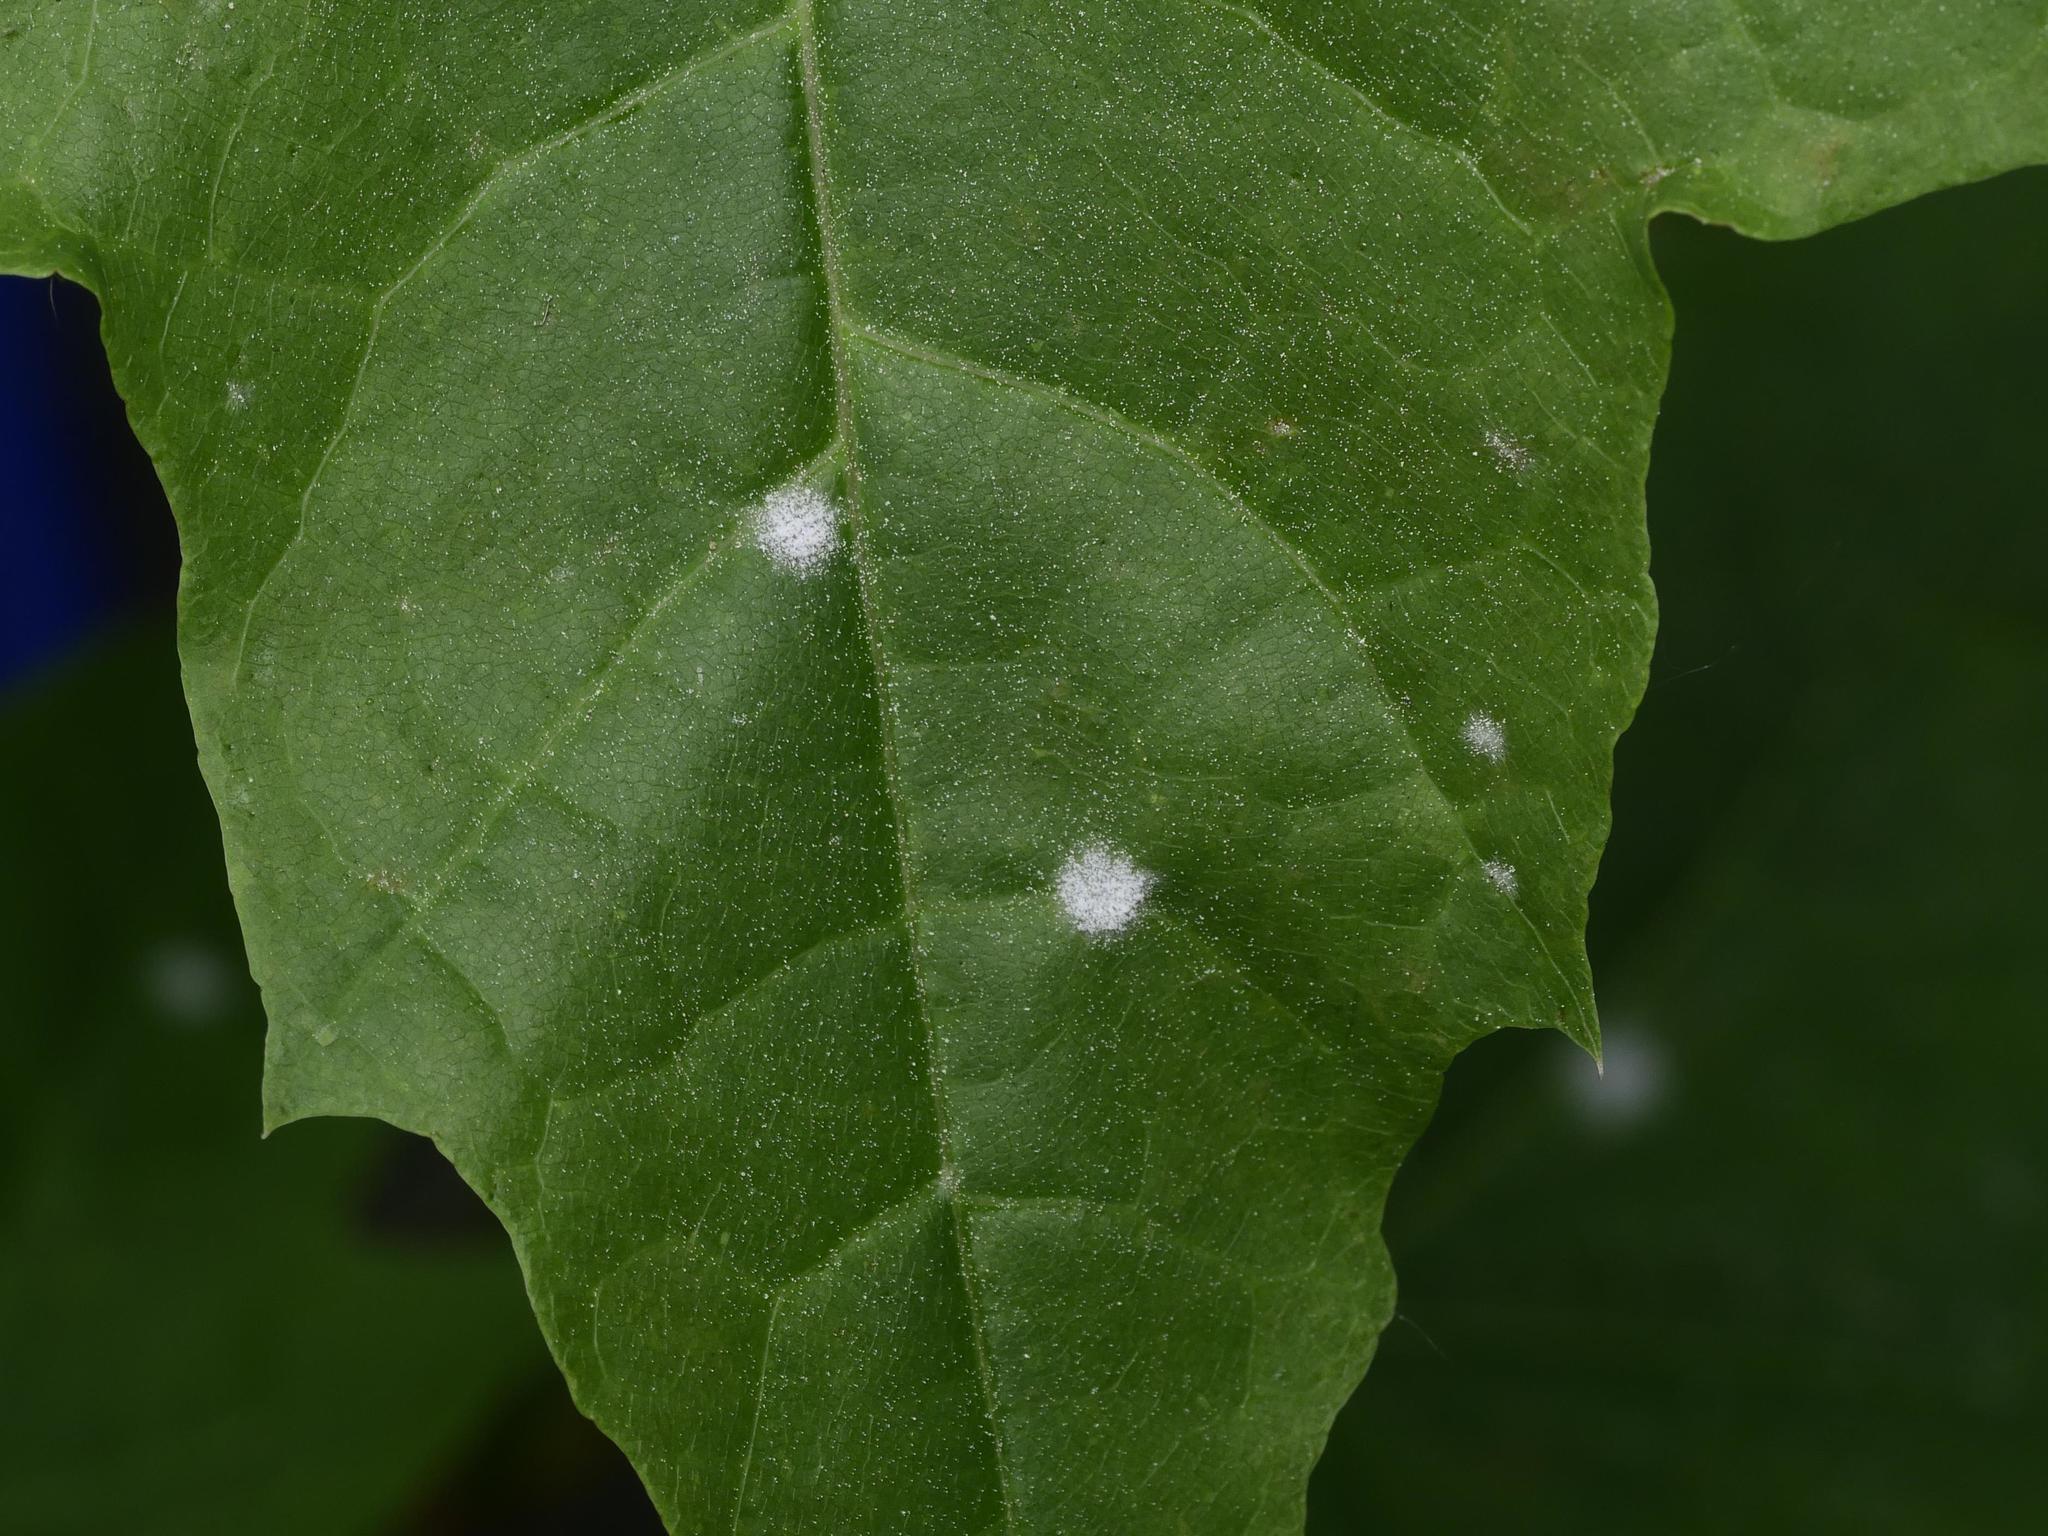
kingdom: Fungi
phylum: Ascomycota
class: Leotiomycetes
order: Helotiales
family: Erysiphaceae
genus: Sawadaea
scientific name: Sawadaea tulasnei
